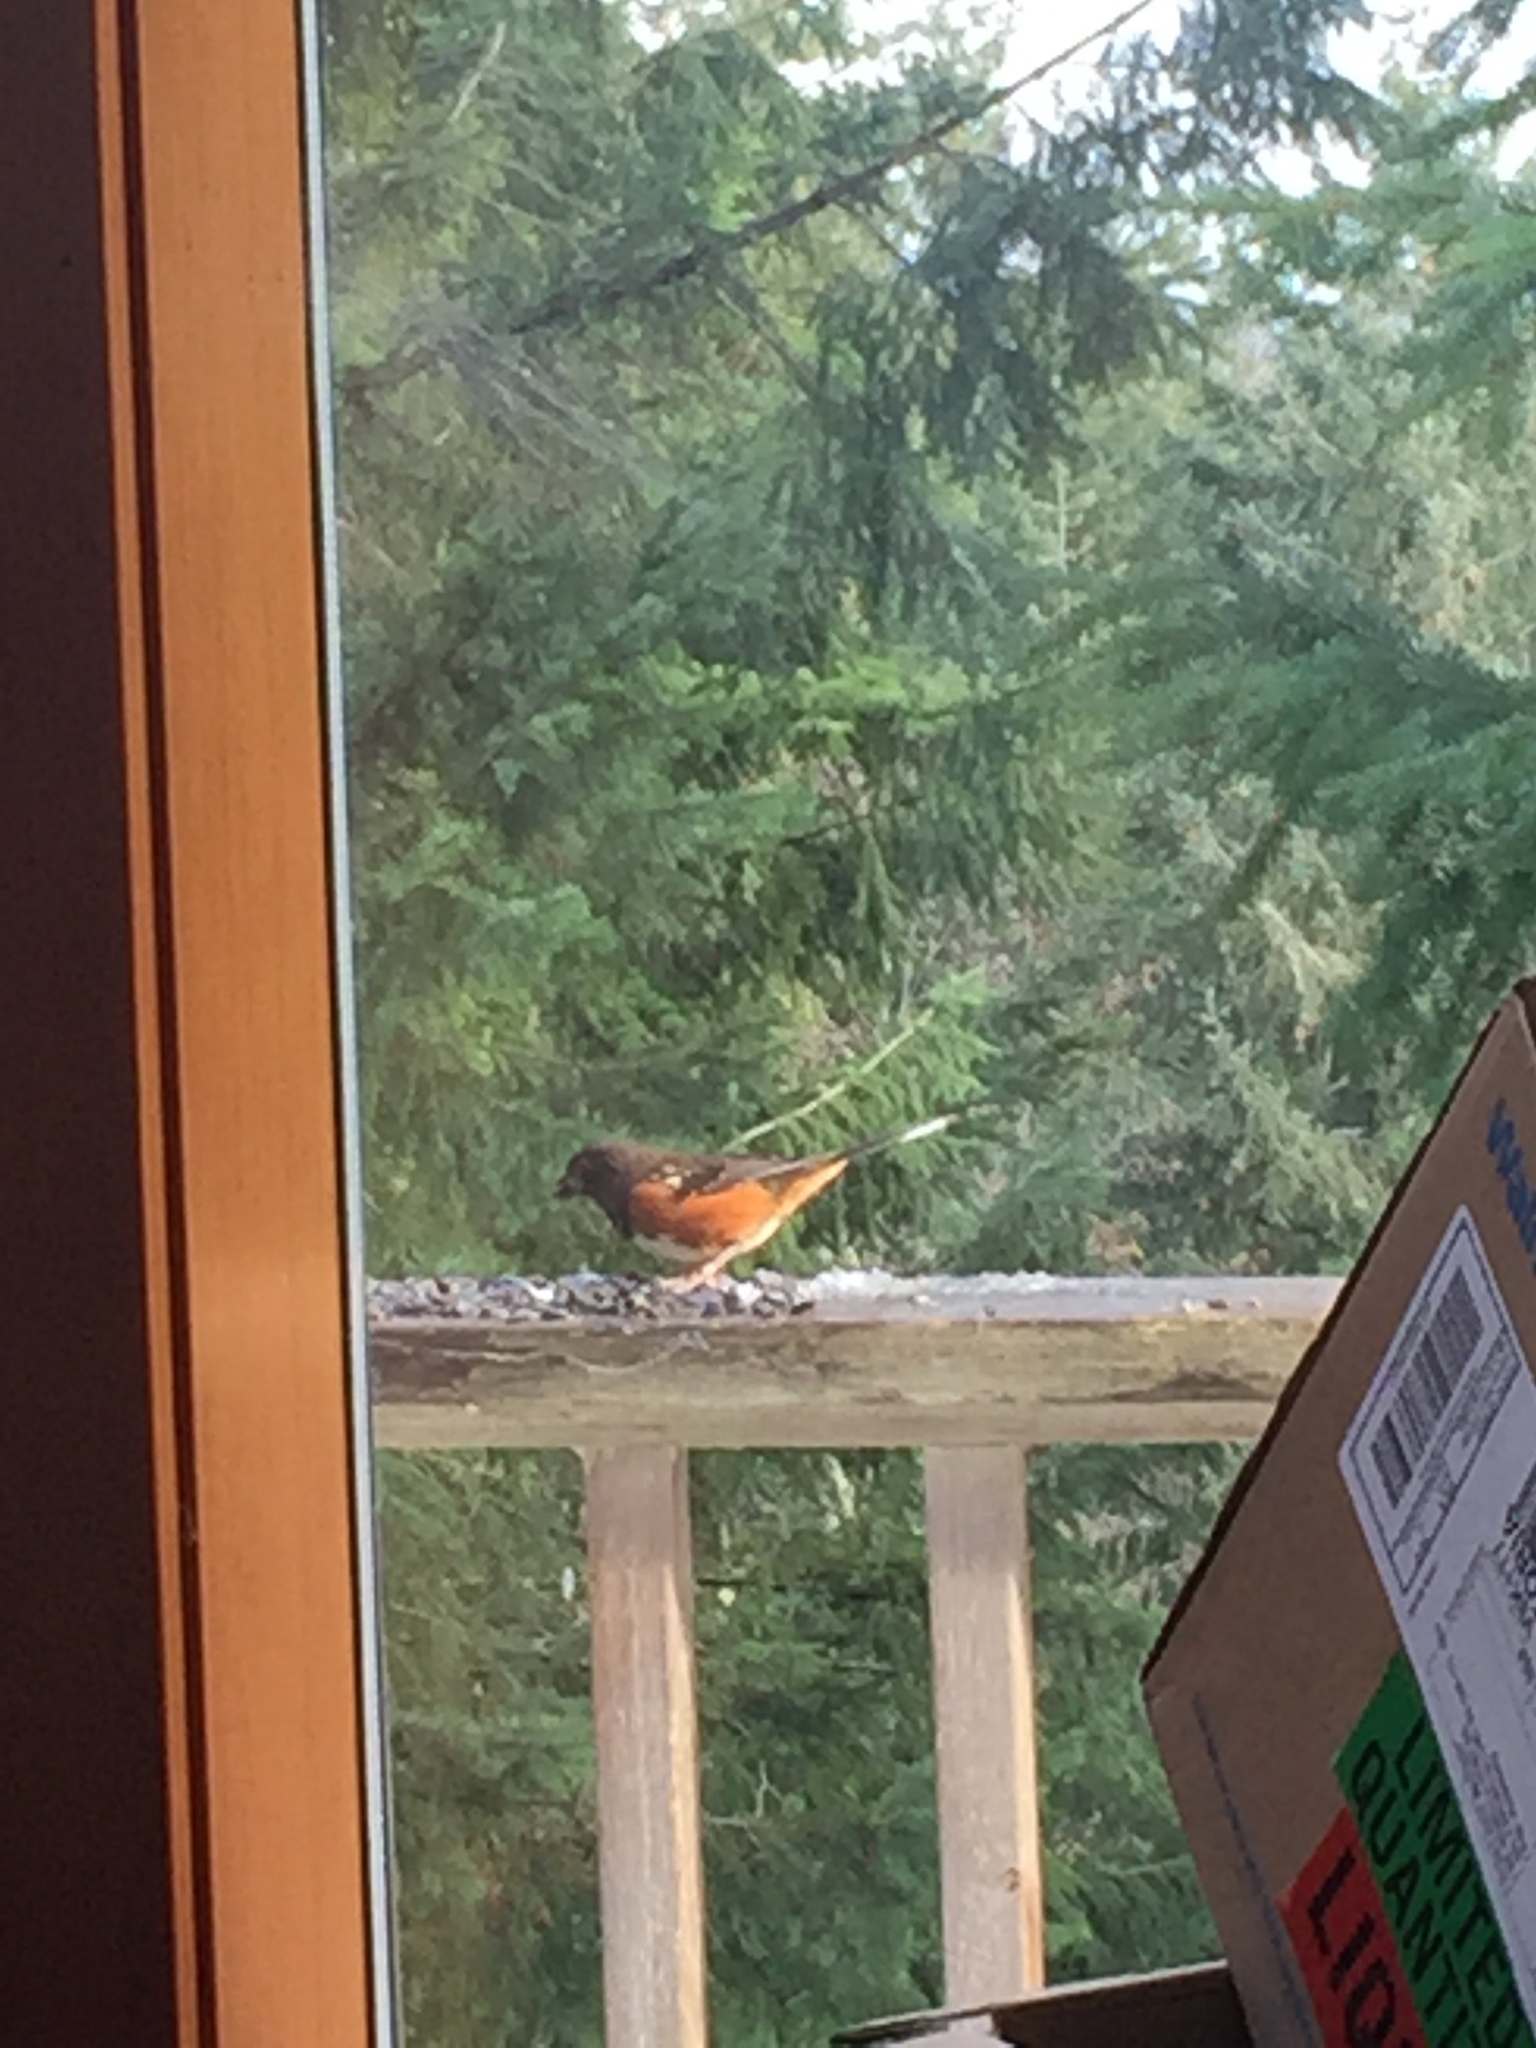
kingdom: Animalia
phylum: Chordata
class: Aves
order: Passeriformes
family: Passerellidae
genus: Pipilo
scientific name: Pipilo maculatus
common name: Spotted towhee
